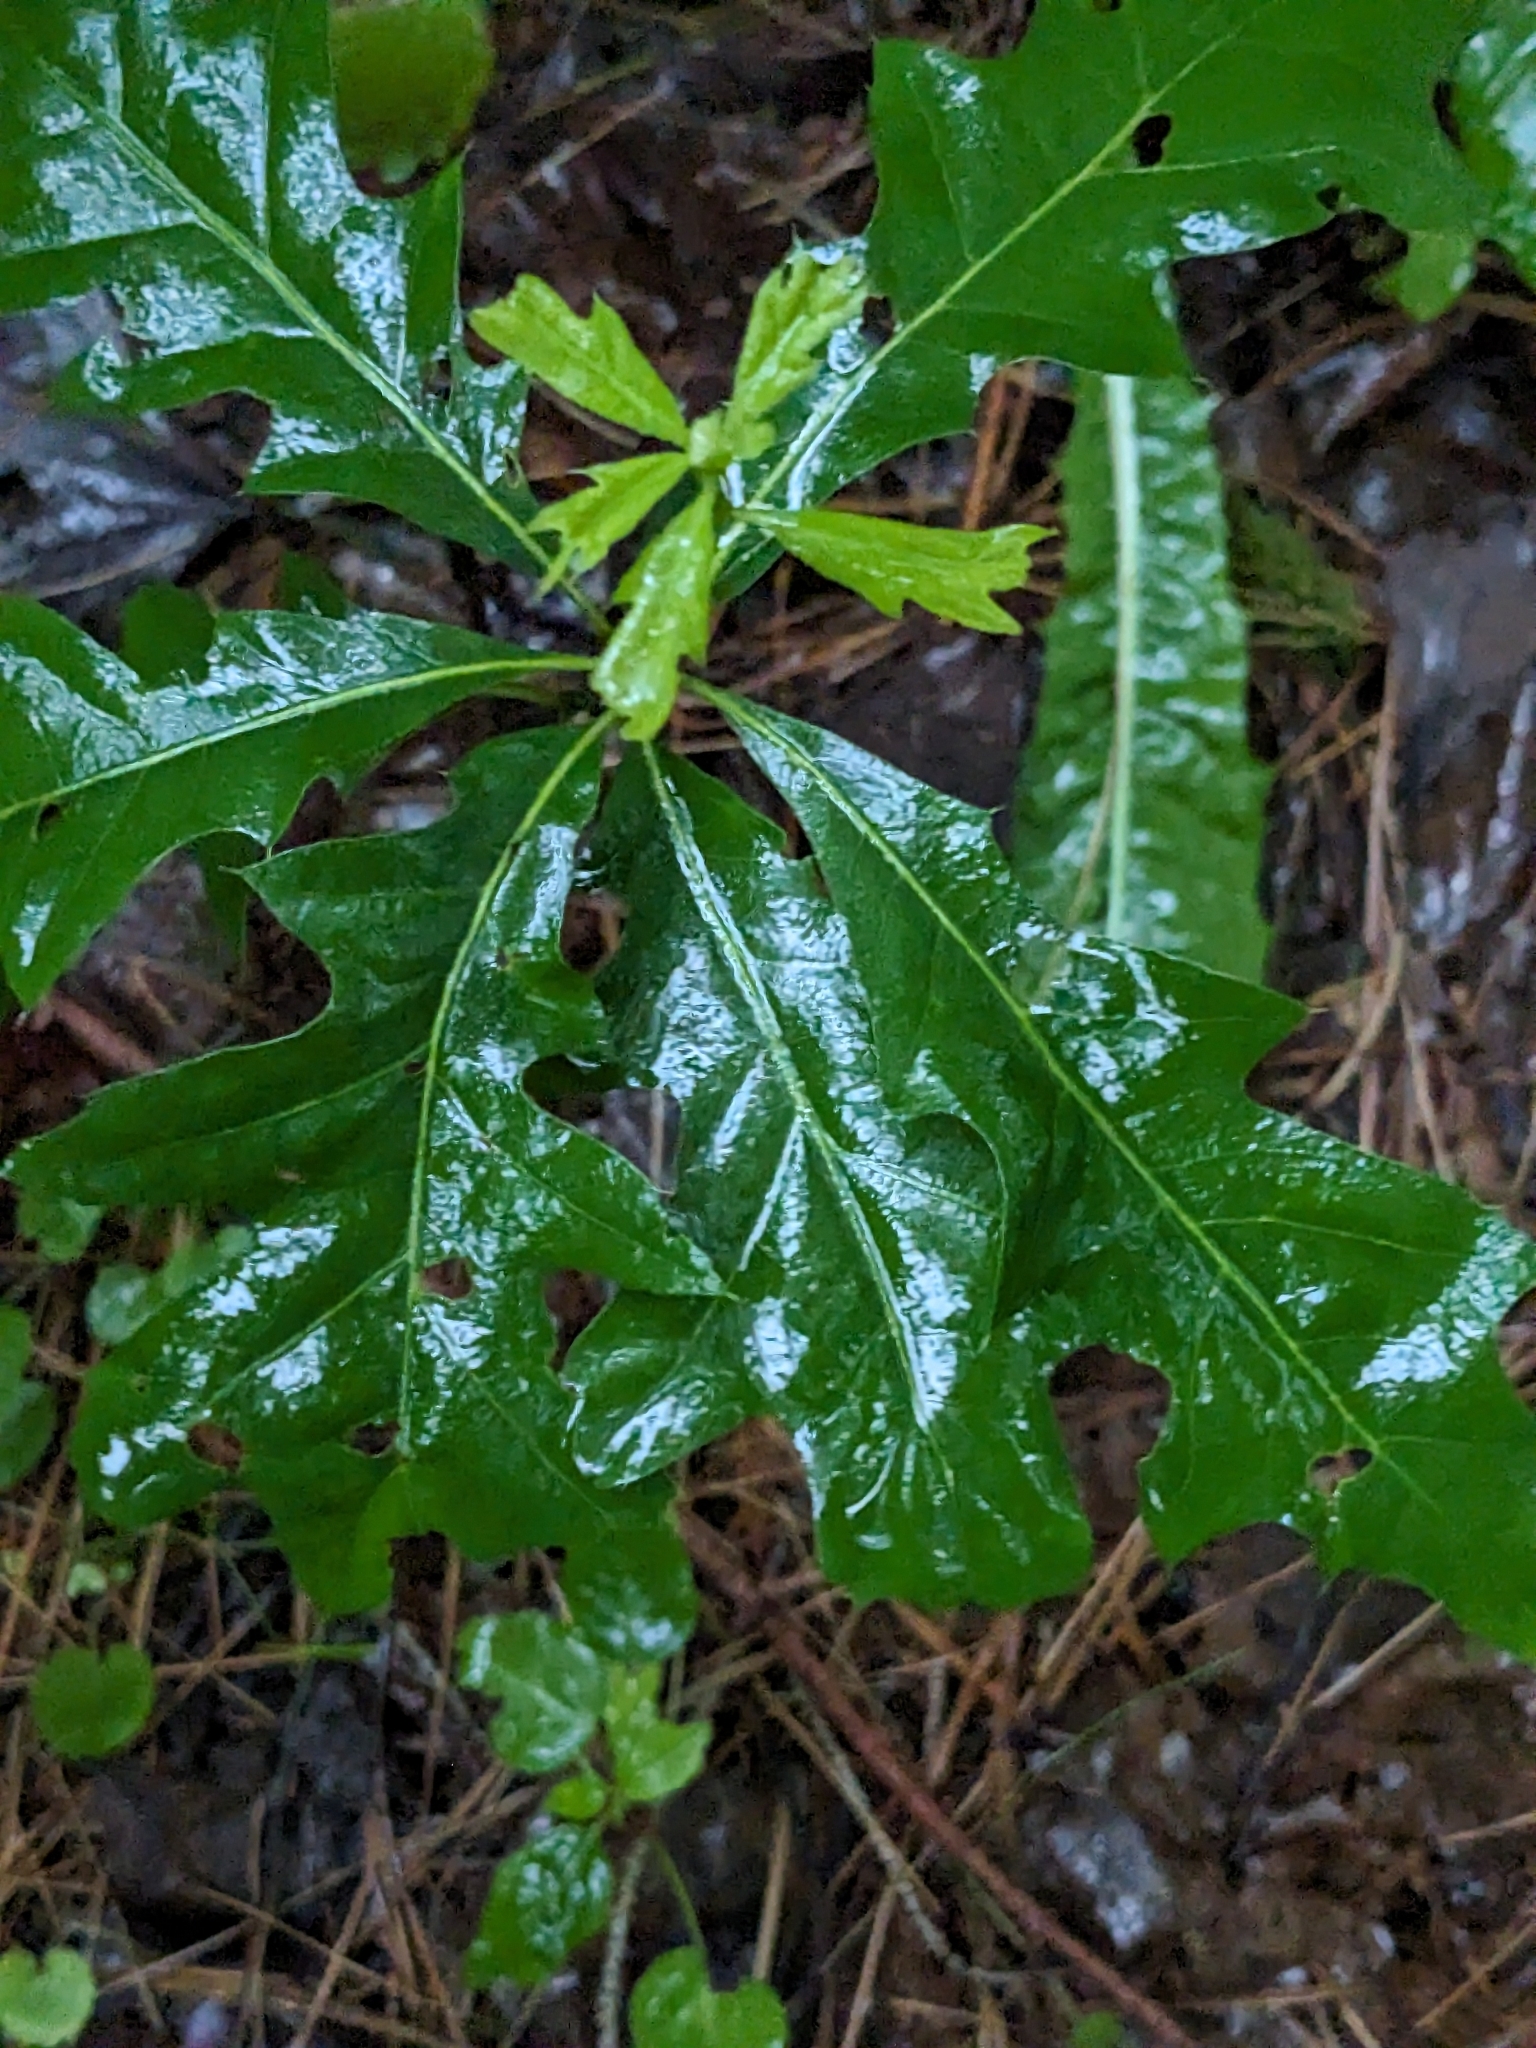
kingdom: Plantae
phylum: Tracheophyta
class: Magnoliopsida
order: Fagales
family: Fagaceae
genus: Quercus
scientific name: Quercus rubra
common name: Red oak
